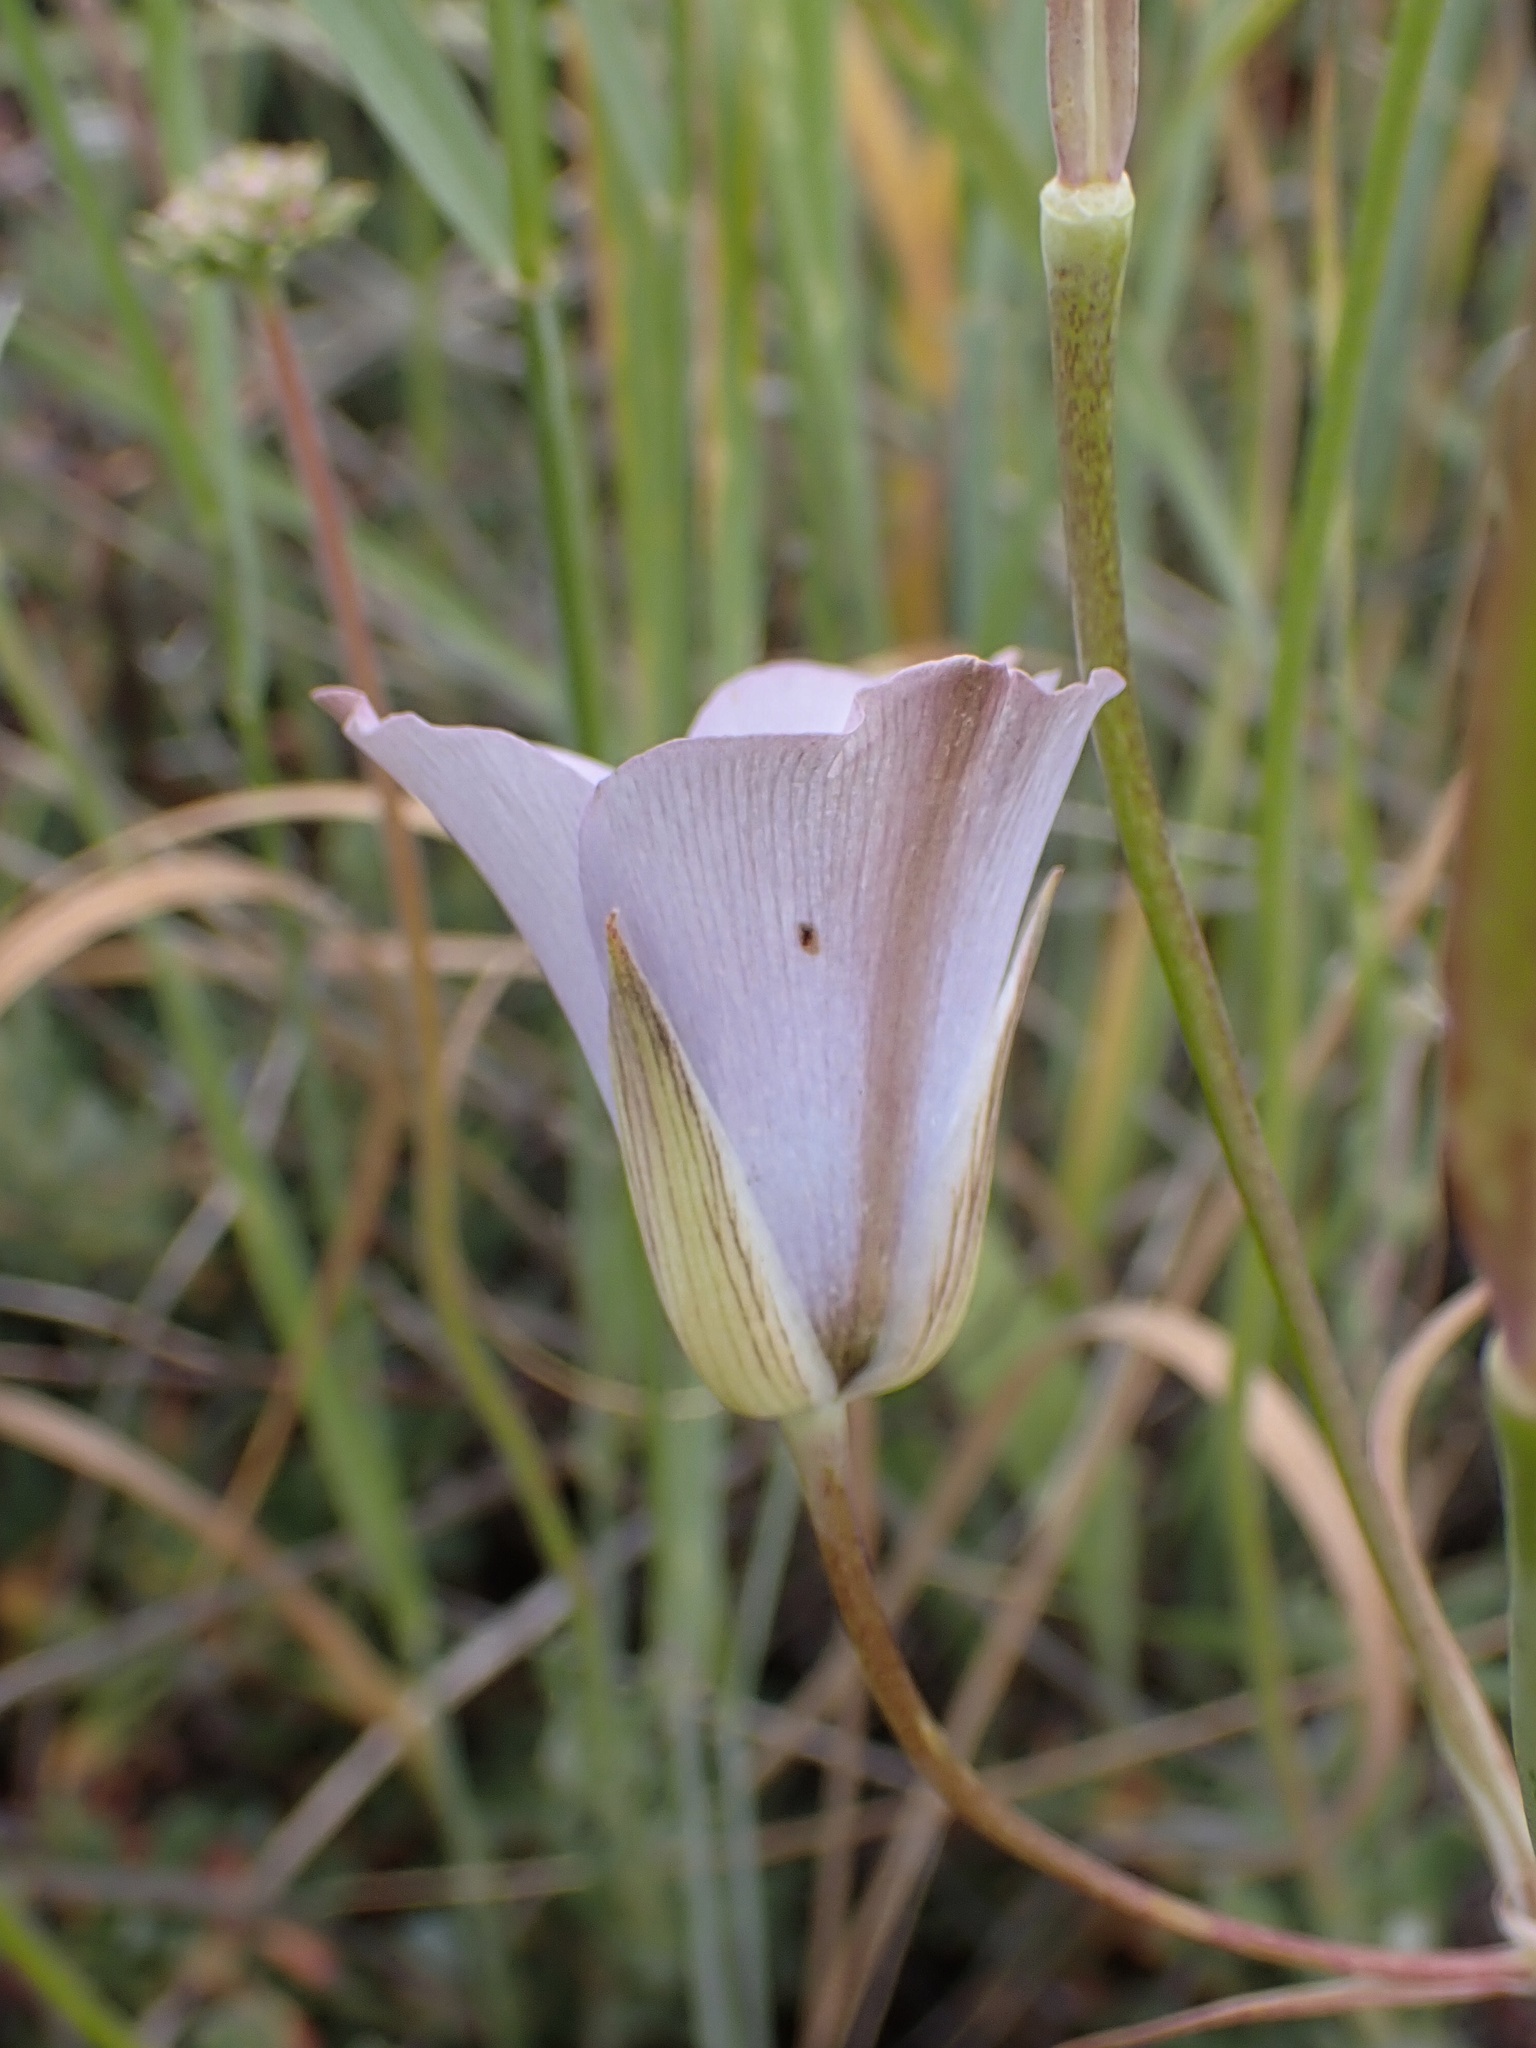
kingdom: Plantae
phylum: Tracheophyta
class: Liliopsida
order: Liliales
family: Liliaceae
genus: Calochortus
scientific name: Calochortus invenustus
